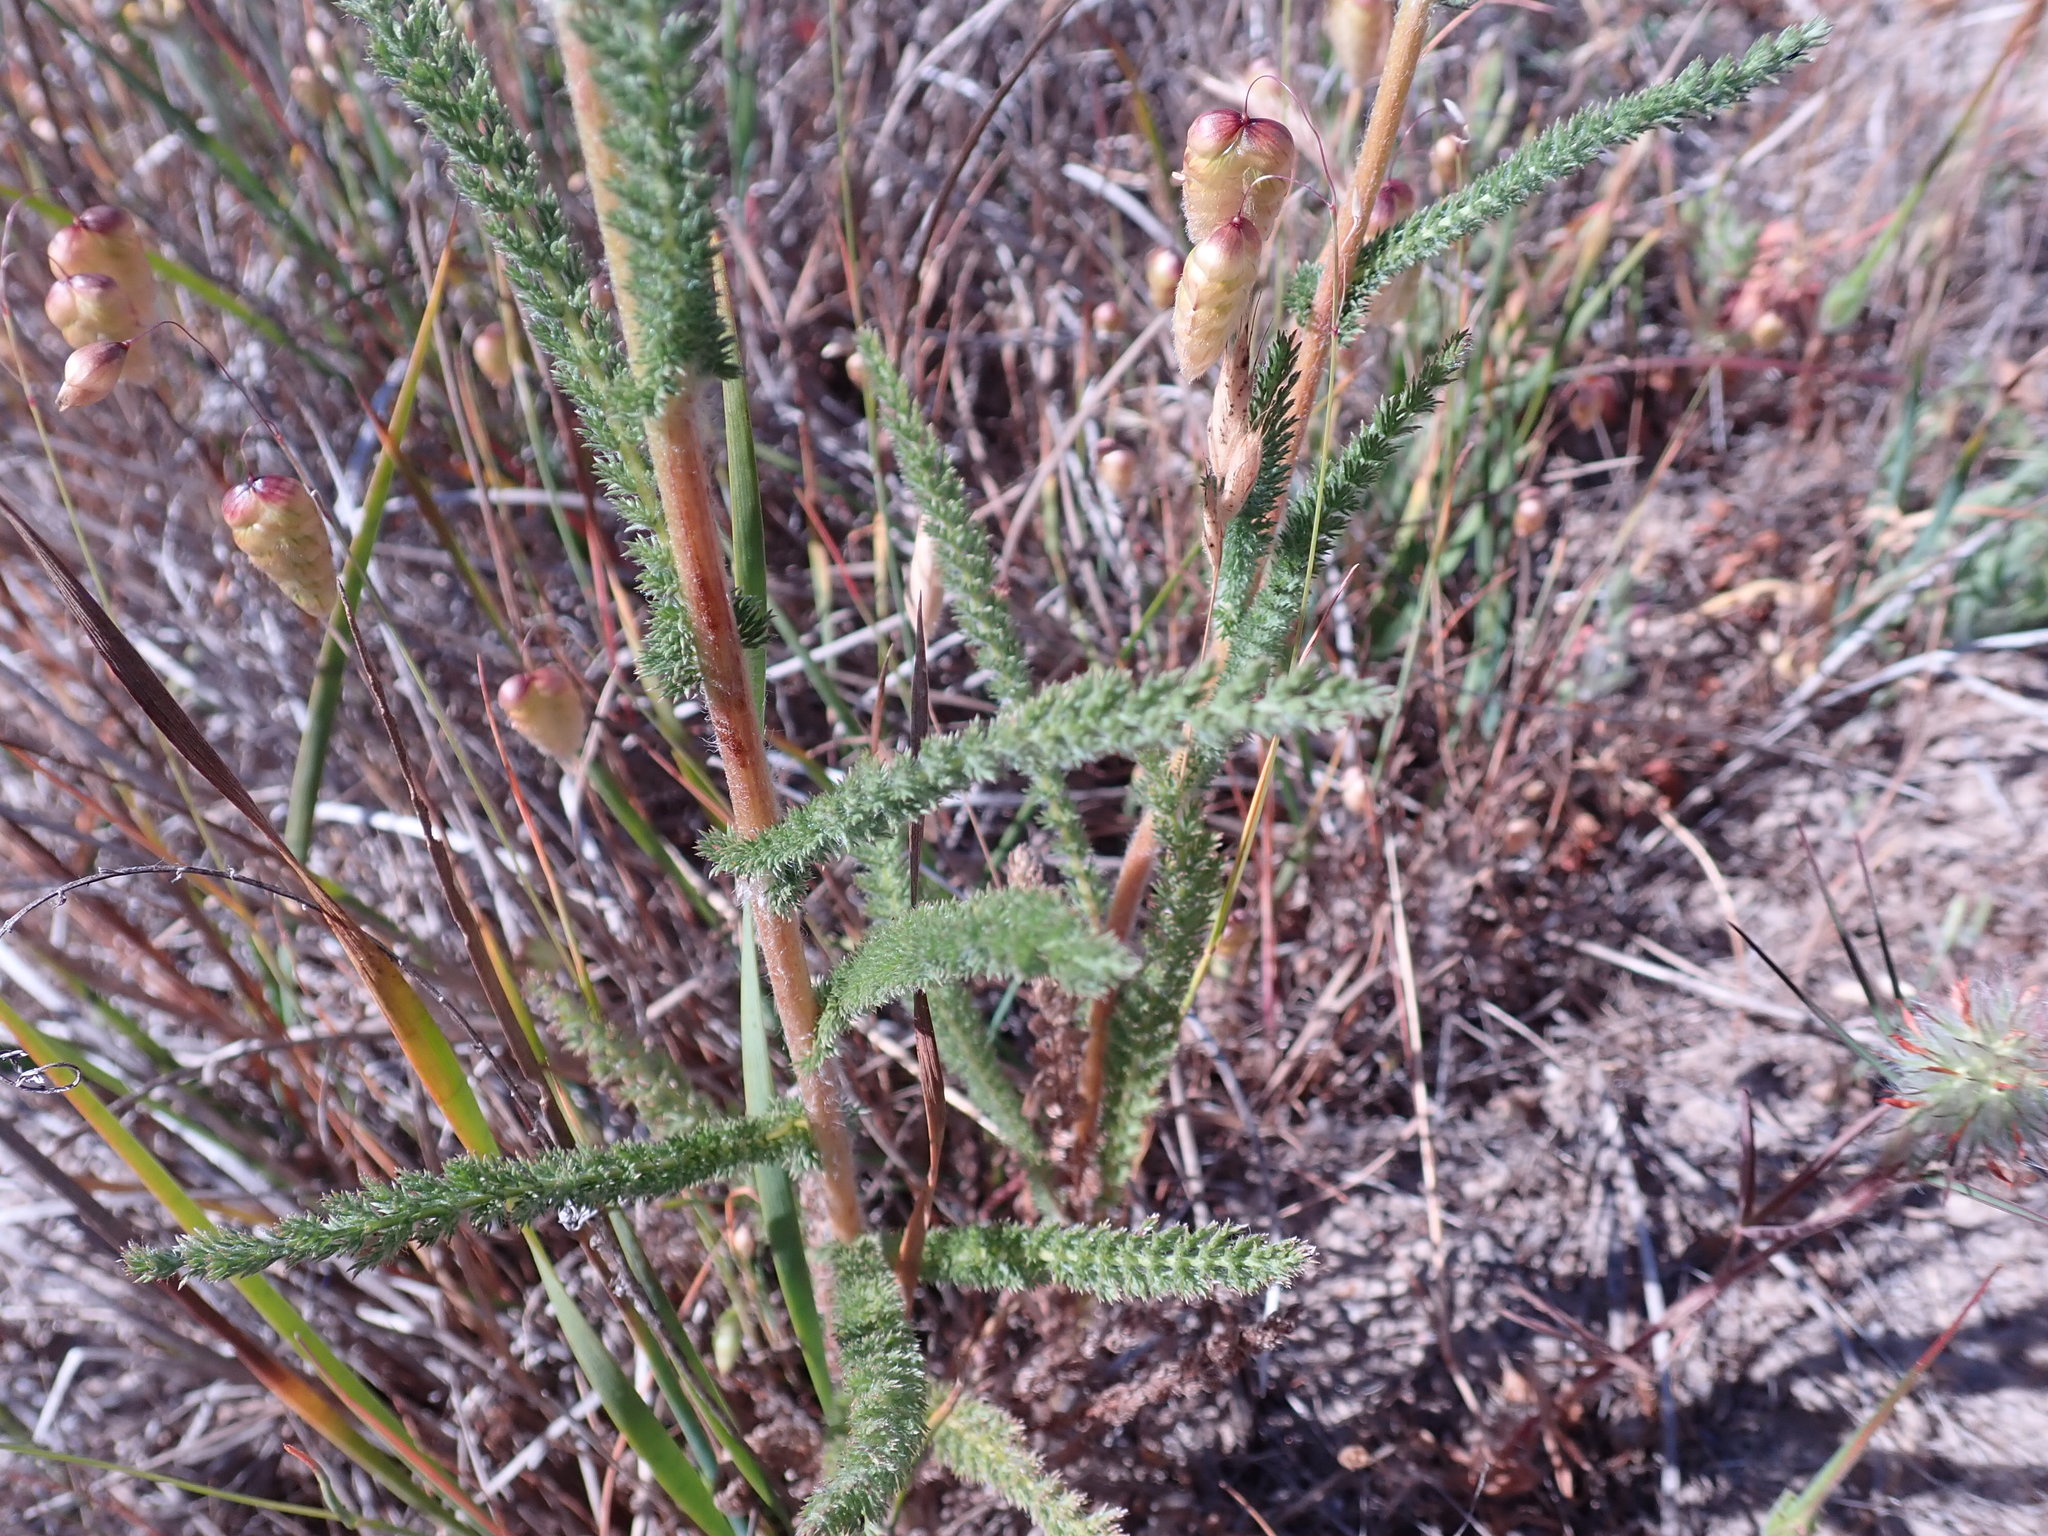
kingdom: Plantae
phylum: Tracheophyta
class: Magnoliopsida
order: Asterales
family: Asteraceae
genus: Achillea
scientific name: Achillea millefolium
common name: Yarrow
